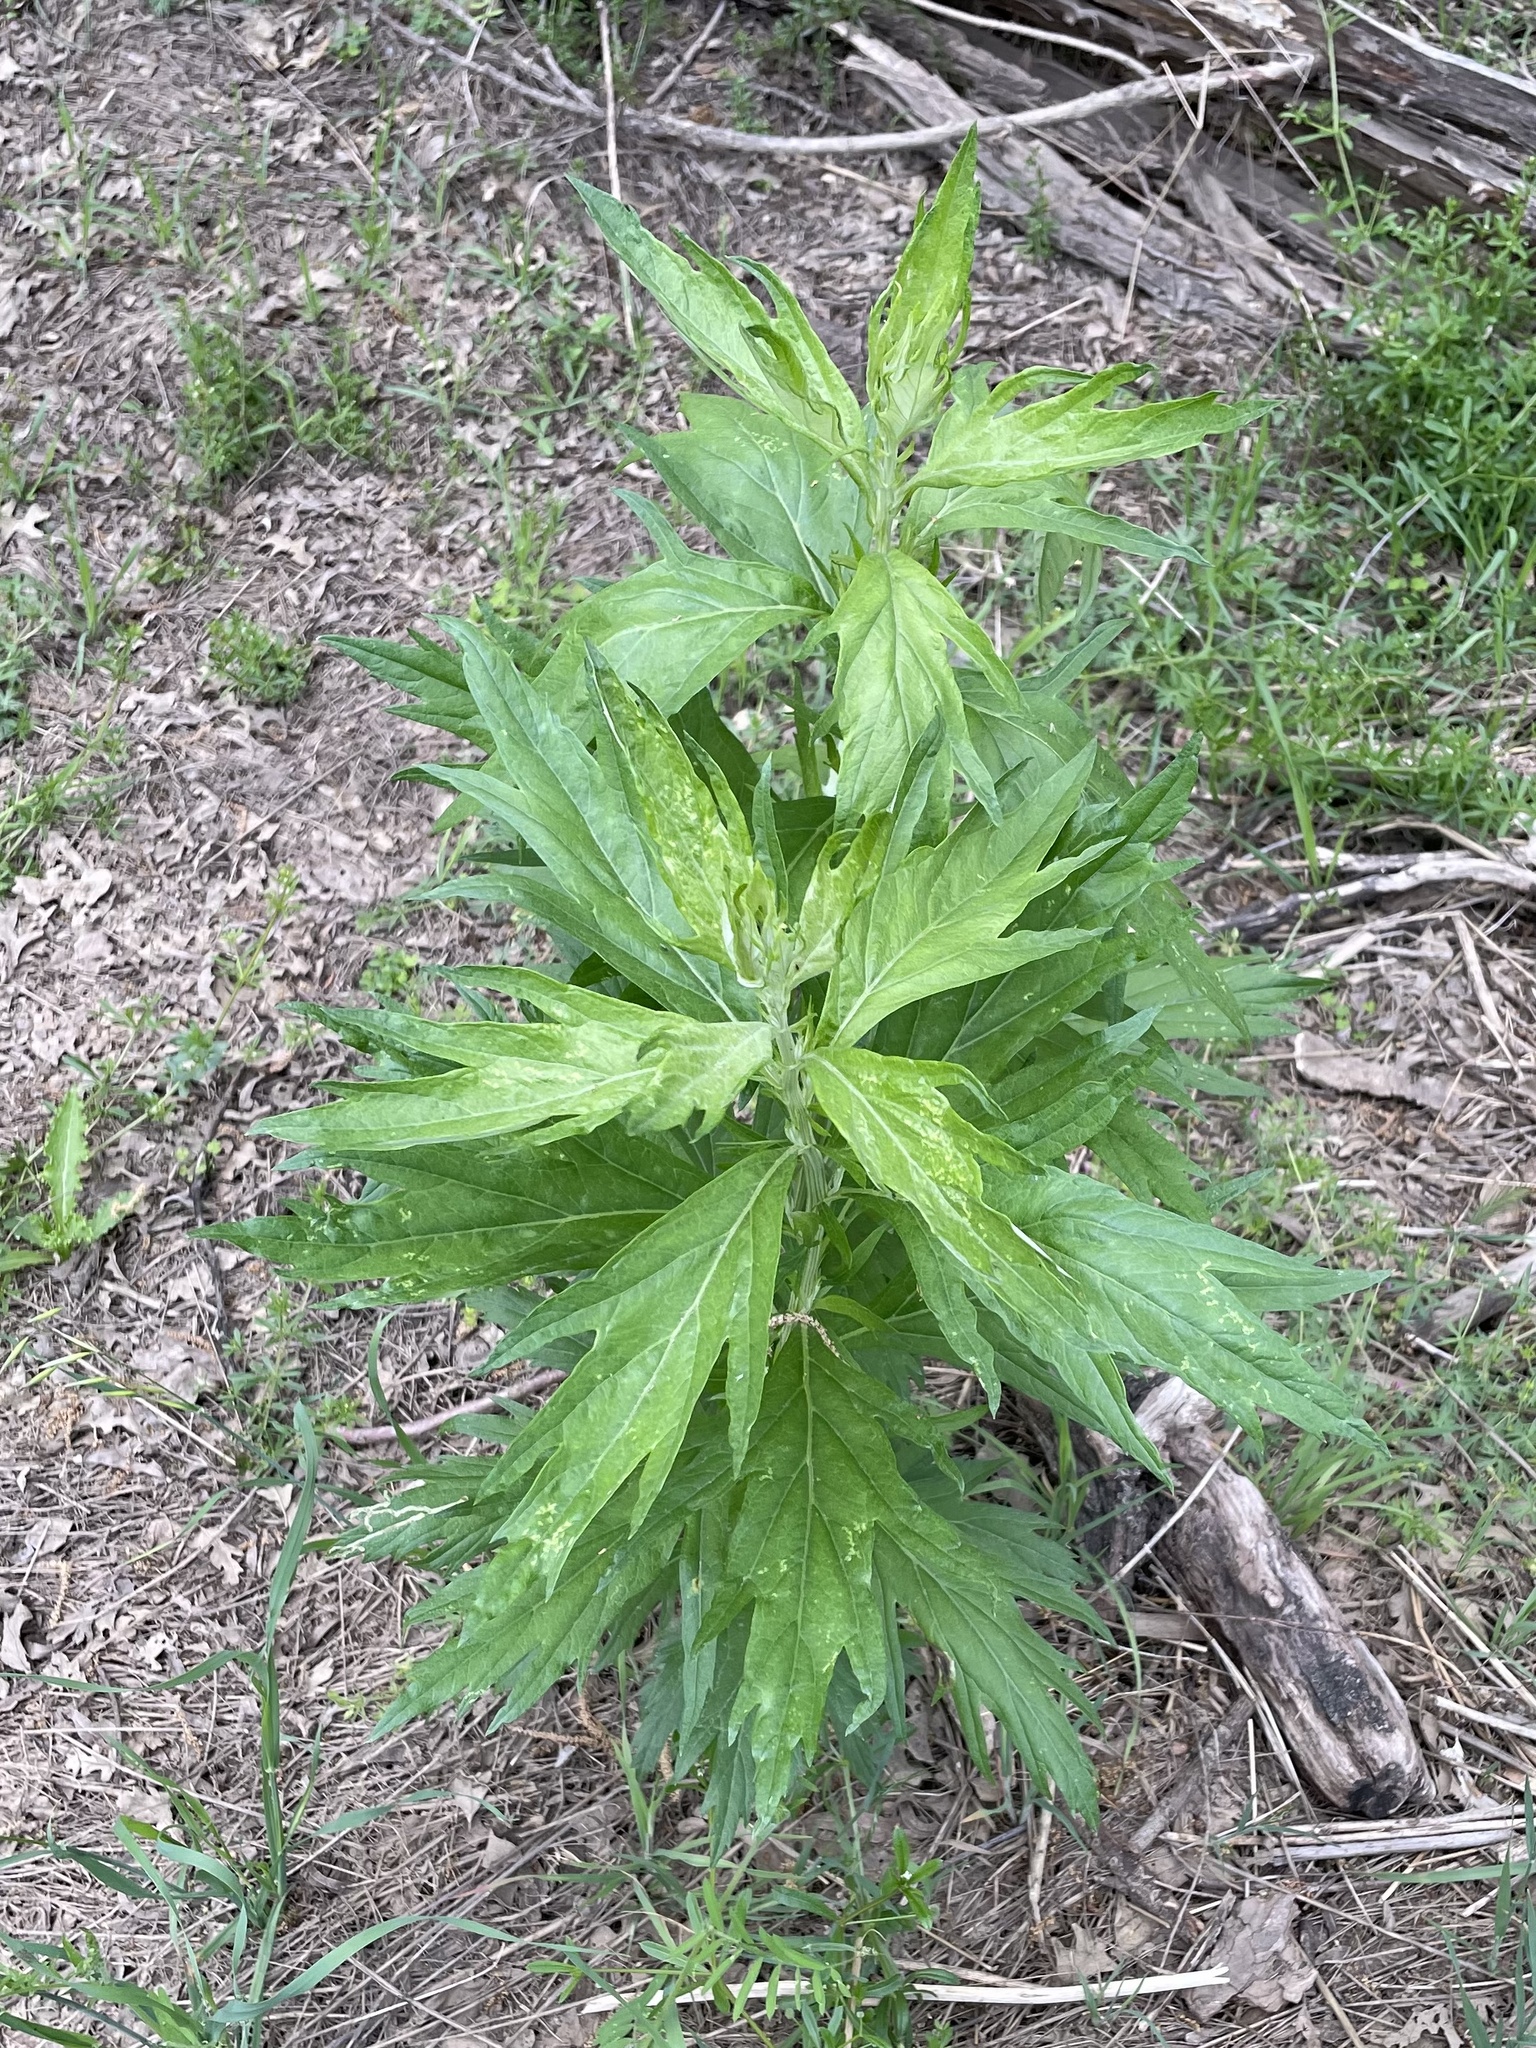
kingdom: Plantae
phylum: Tracheophyta
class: Magnoliopsida
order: Asterales
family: Asteraceae
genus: Artemisia
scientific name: Artemisia douglasiana
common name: Northwest mugwort
